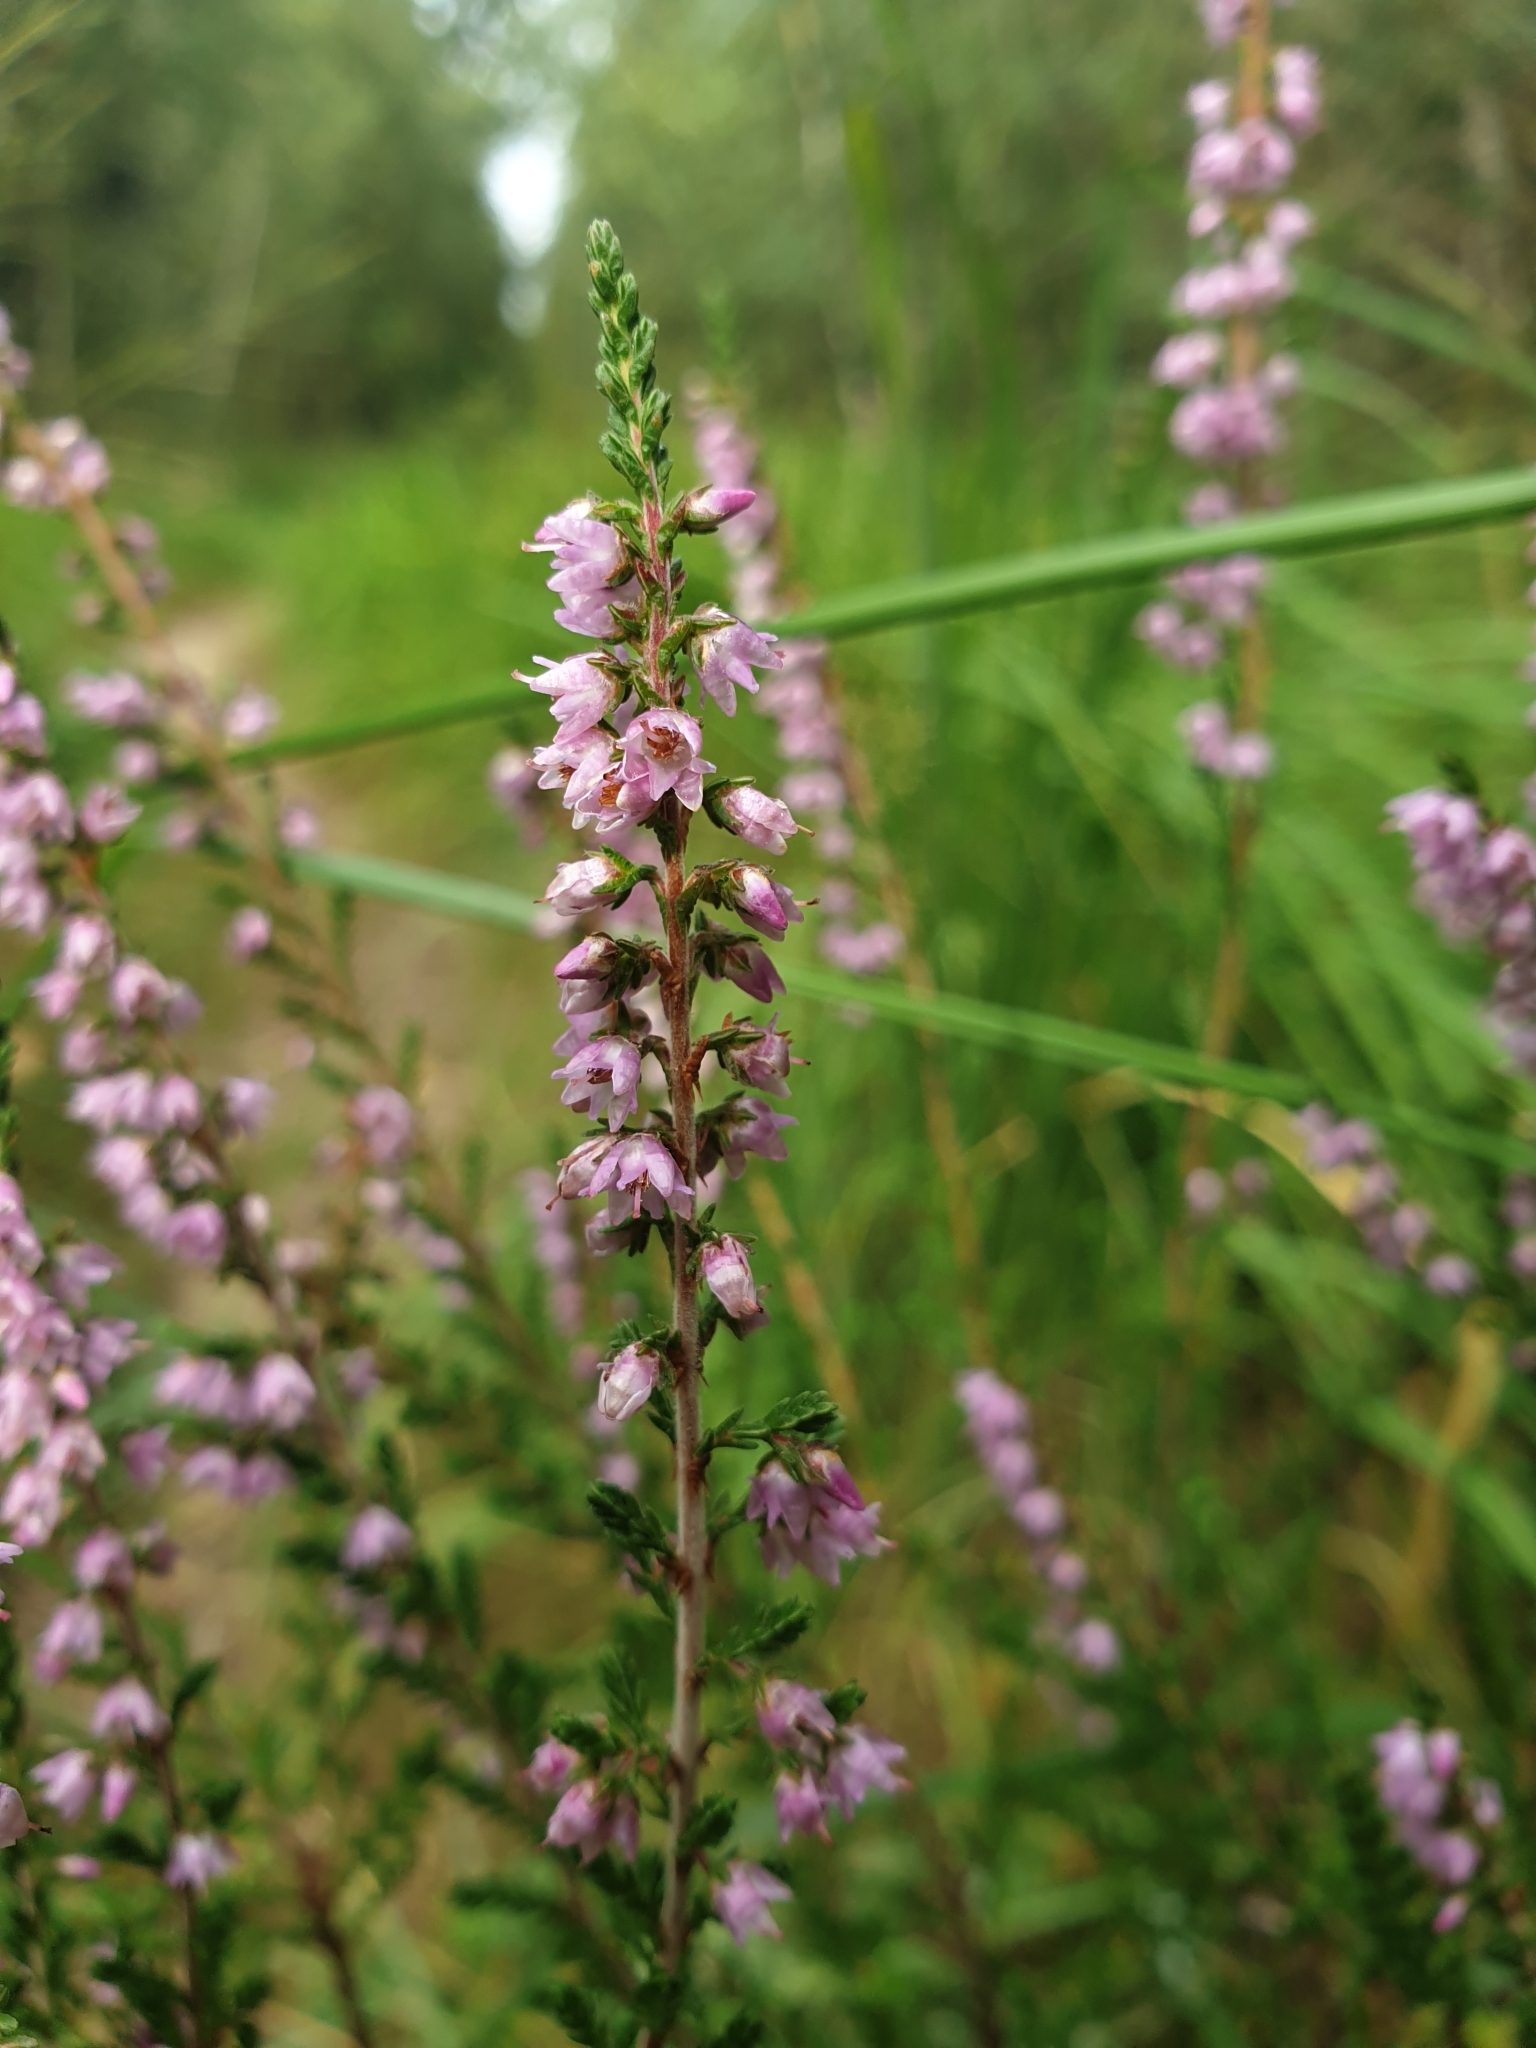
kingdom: Plantae
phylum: Tracheophyta
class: Magnoliopsida
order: Ericales
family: Ericaceae
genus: Calluna
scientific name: Calluna vulgaris
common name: Heather
